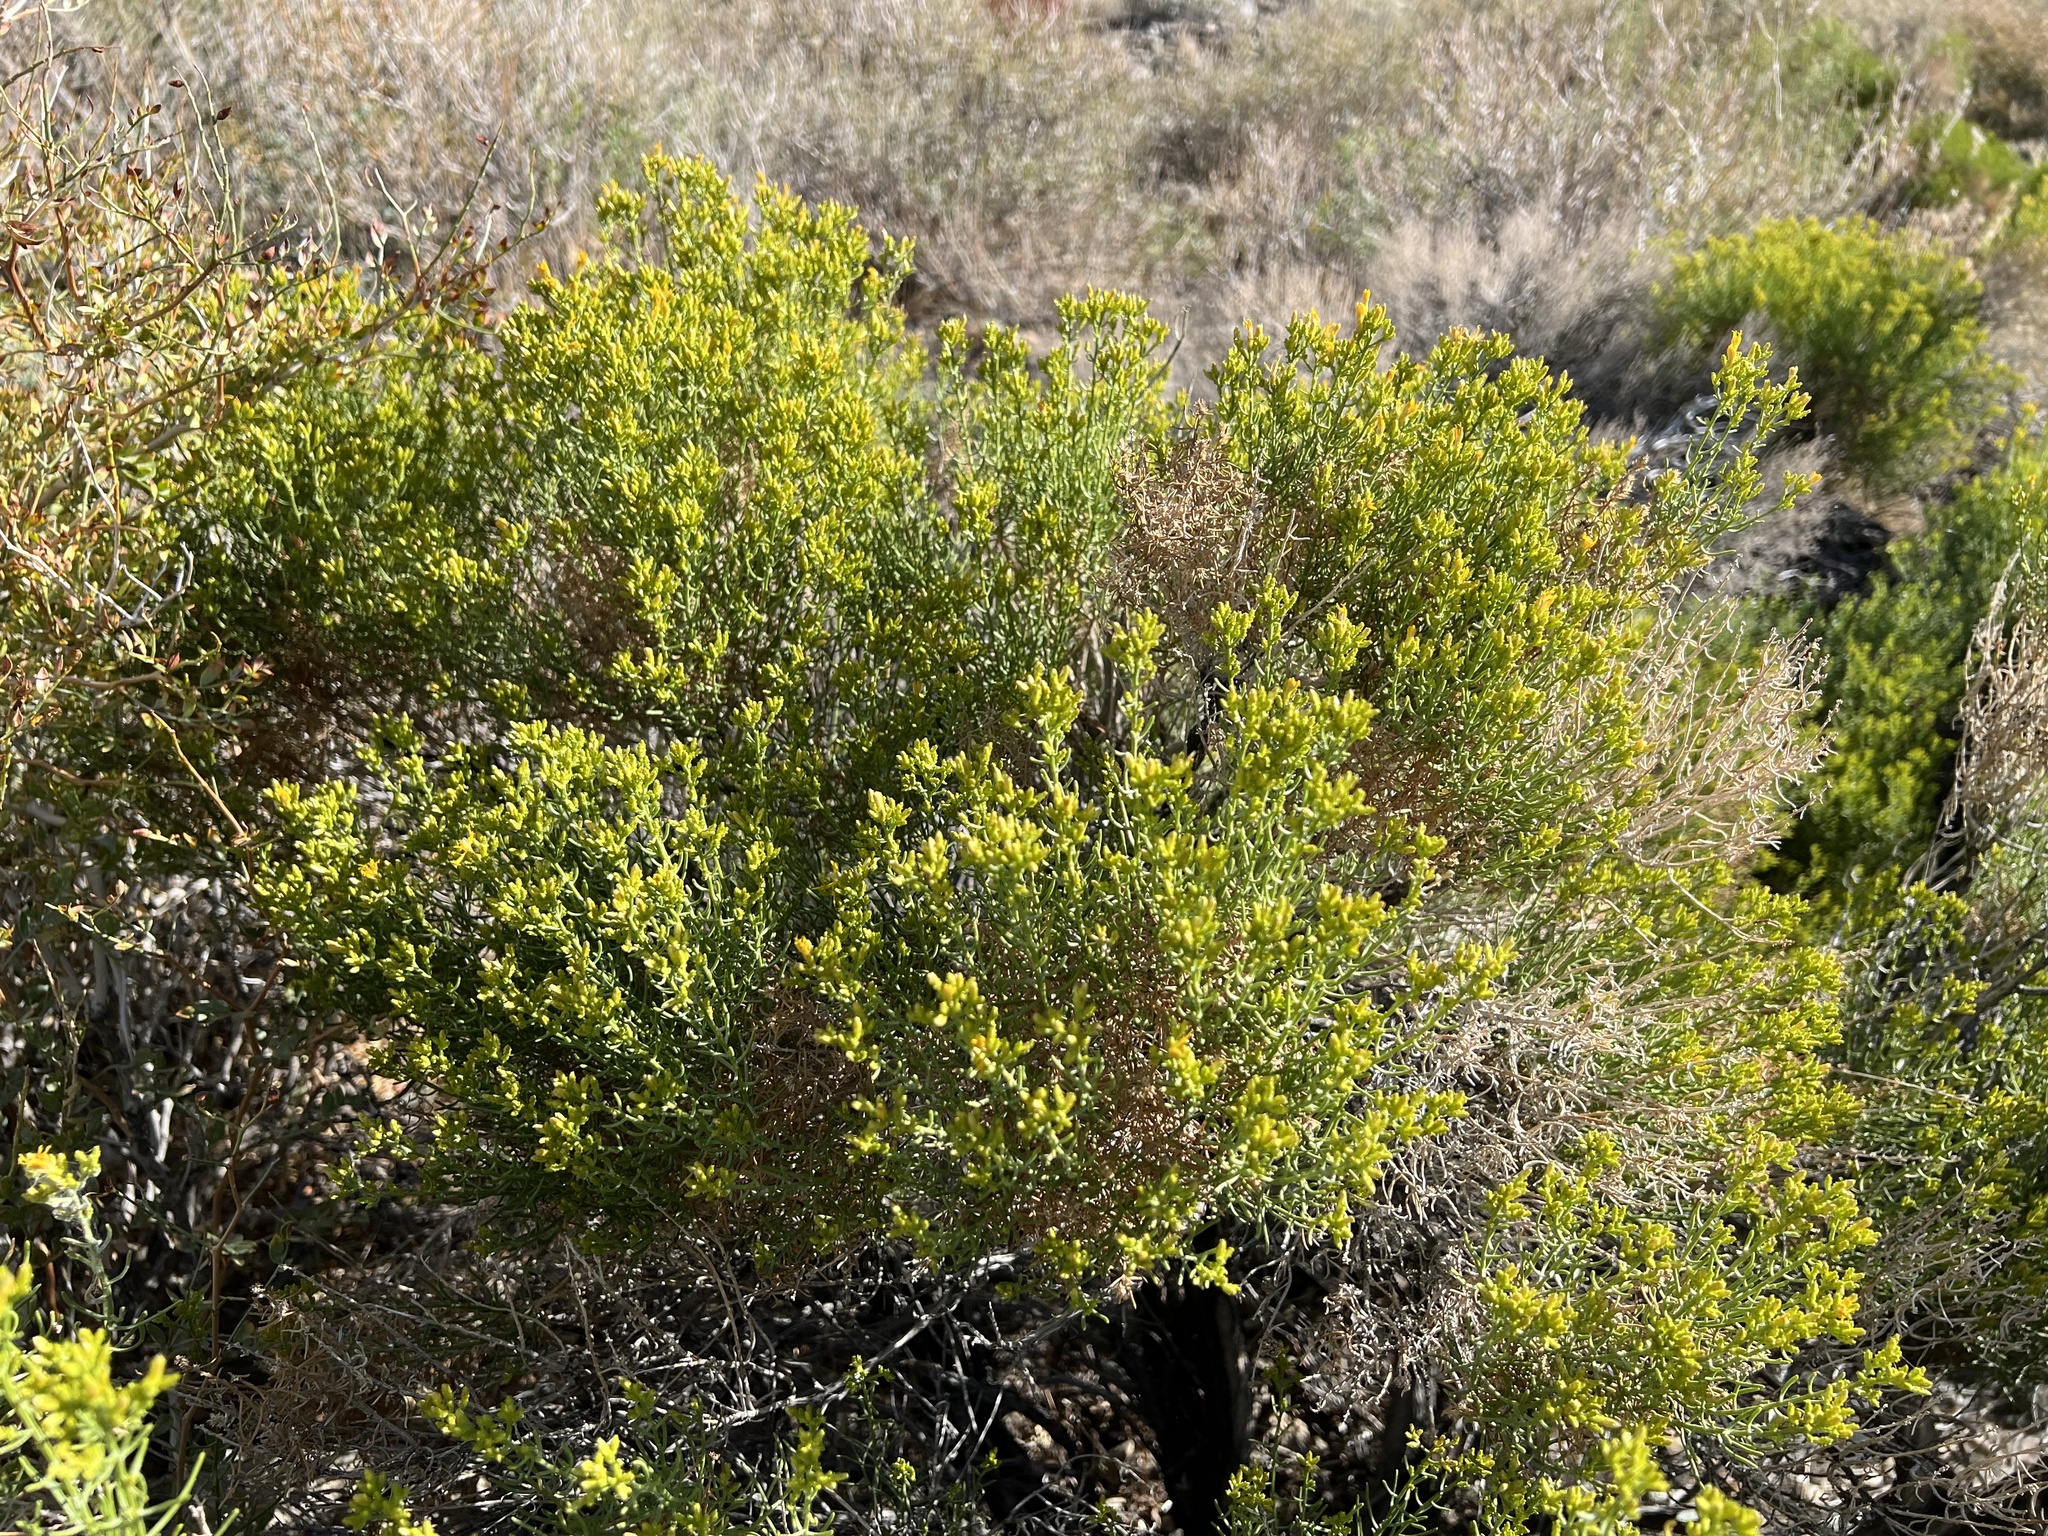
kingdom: Plantae
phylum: Tracheophyta
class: Magnoliopsida
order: Asterales
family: Asteraceae
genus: Ericameria
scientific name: Ericameria teretifolia
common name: Round-leaf rabbitbrush
